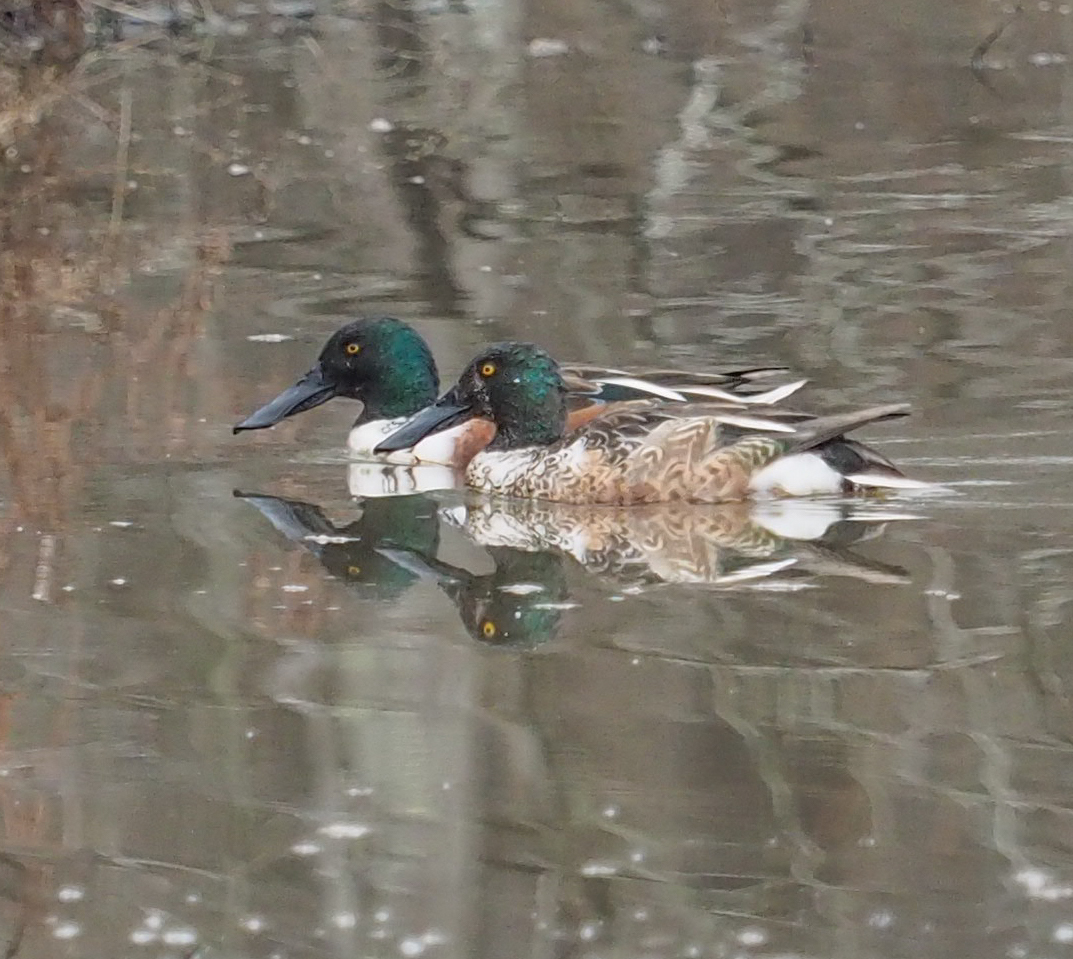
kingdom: Animalia
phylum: Chordata
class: Aves
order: Anseriformes
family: Anatidae
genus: Spatula
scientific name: Spatula clypeata
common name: Northern shoveler
